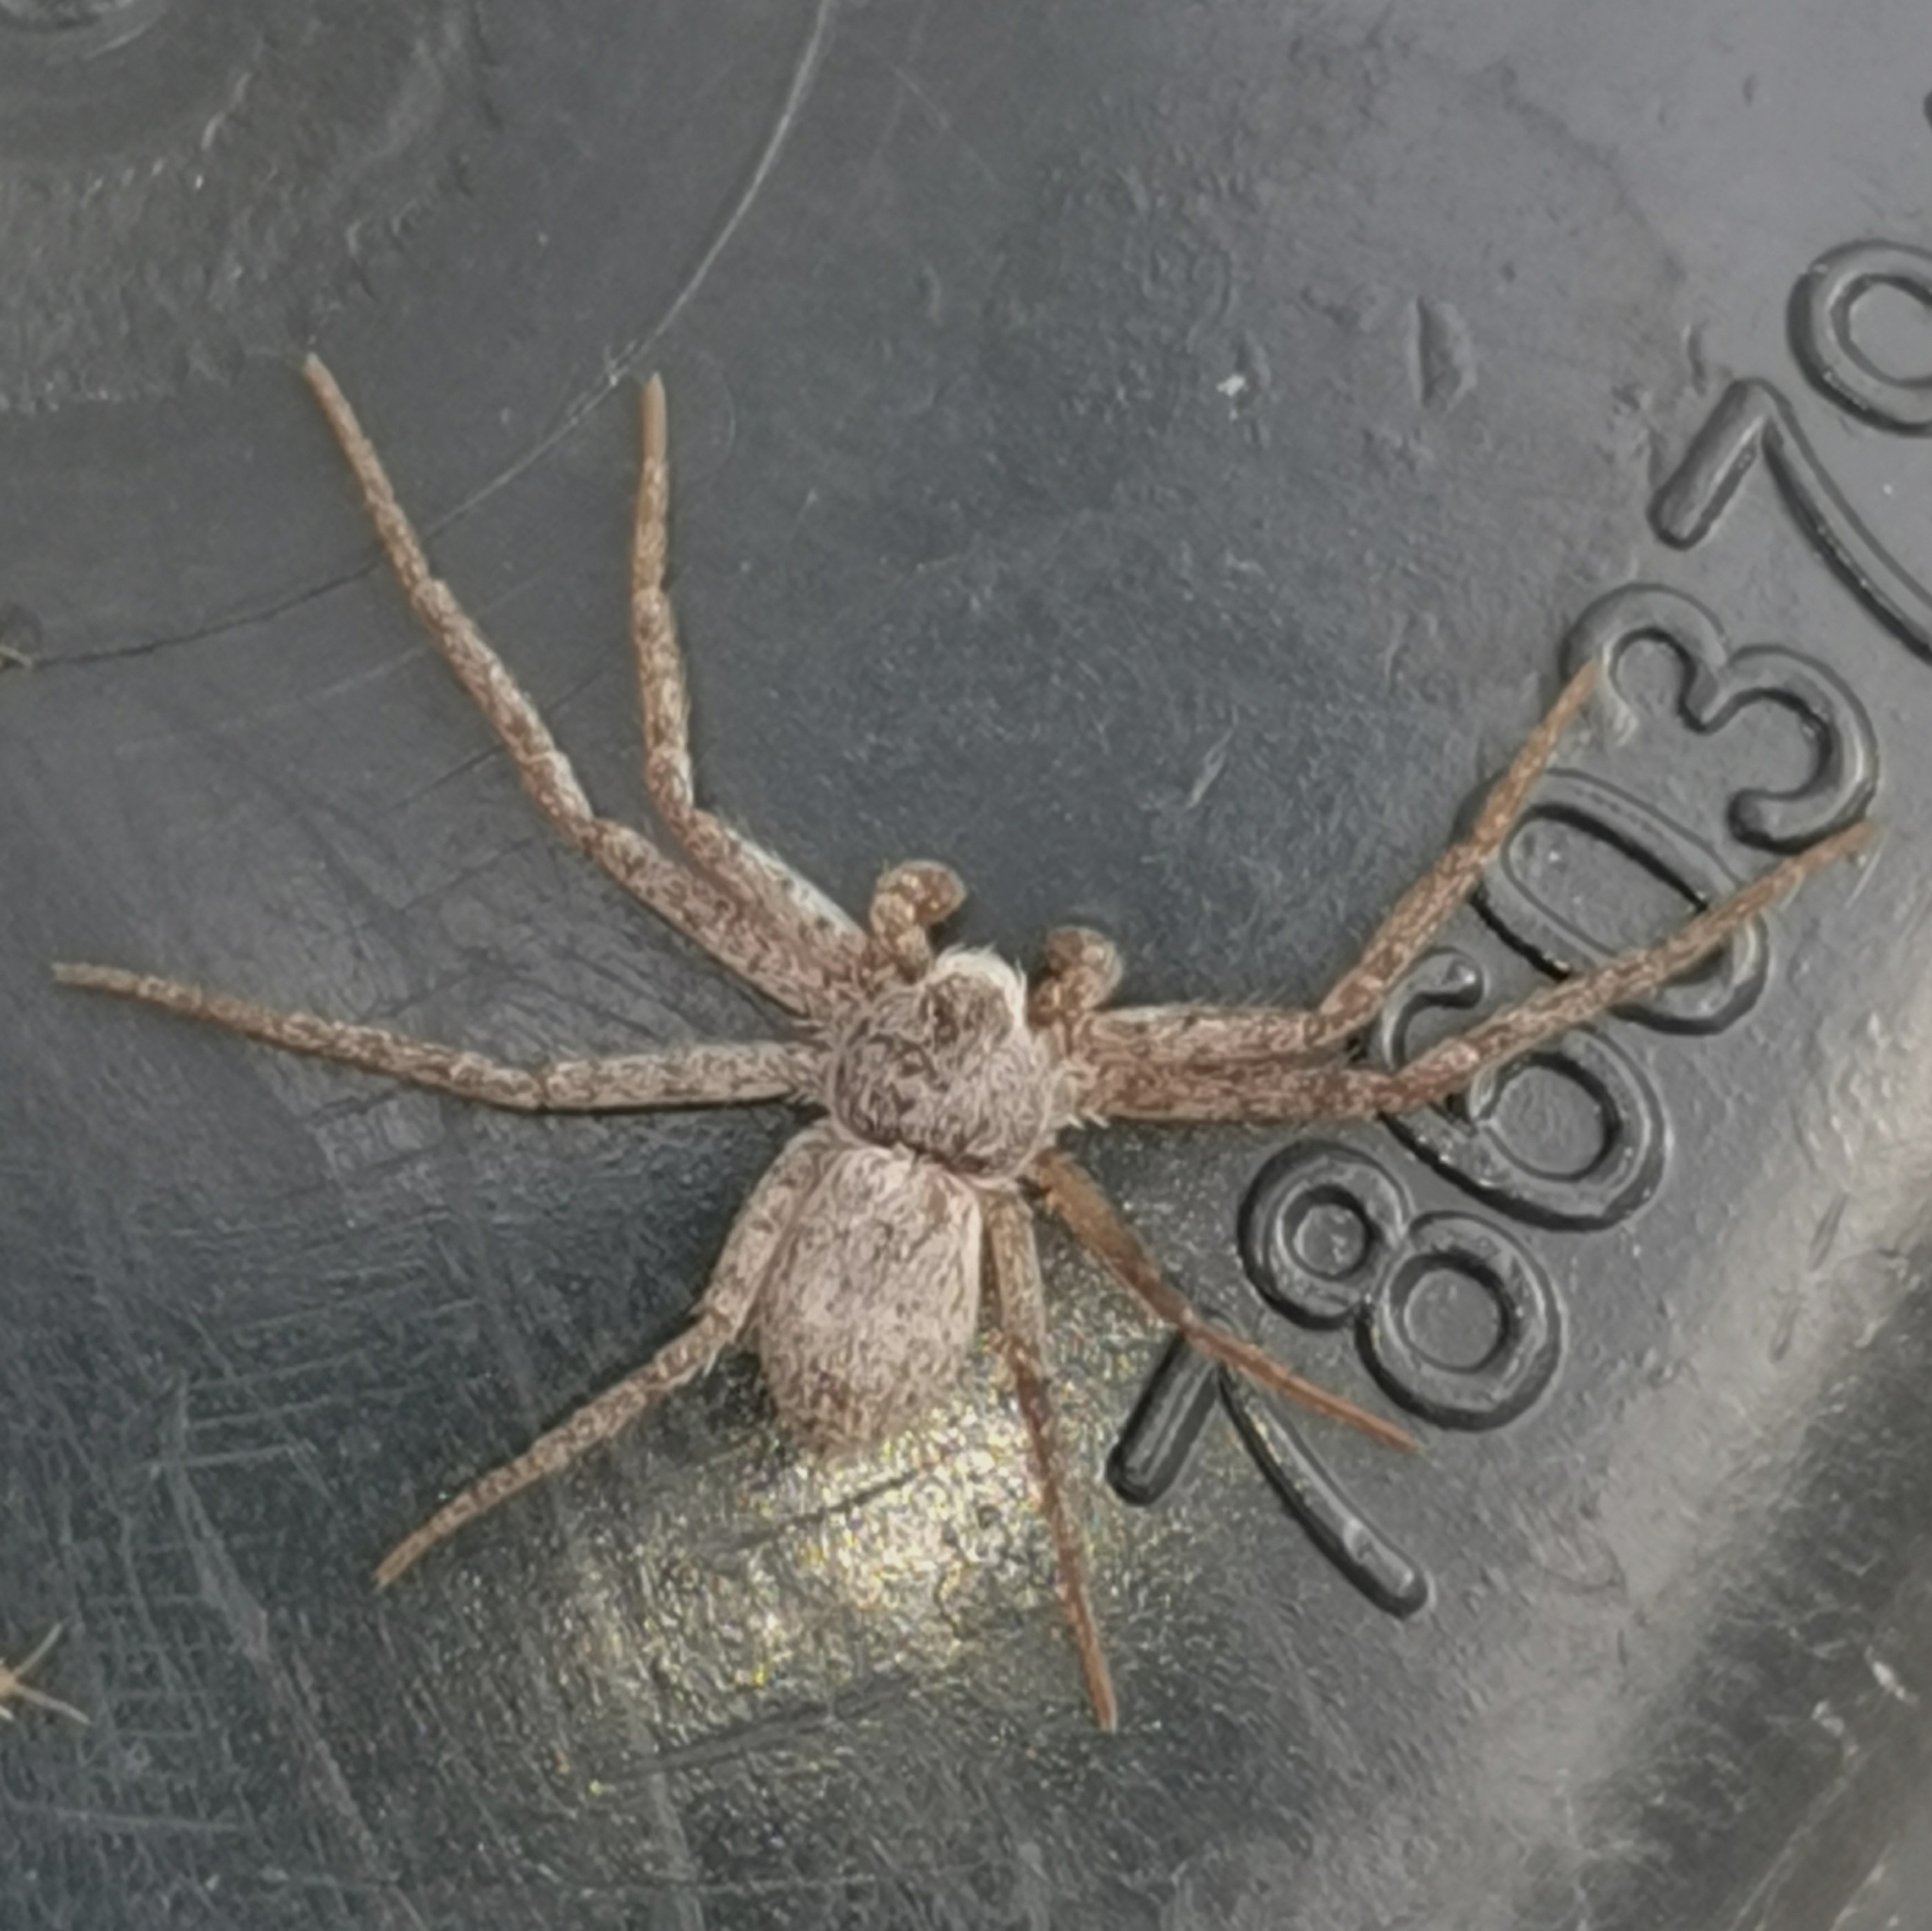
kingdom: Animalia
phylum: Arthropoda
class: Arachnida
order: Araneae
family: Philodromidae
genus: Philodromus
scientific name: Philodromus fuscomarginatus
